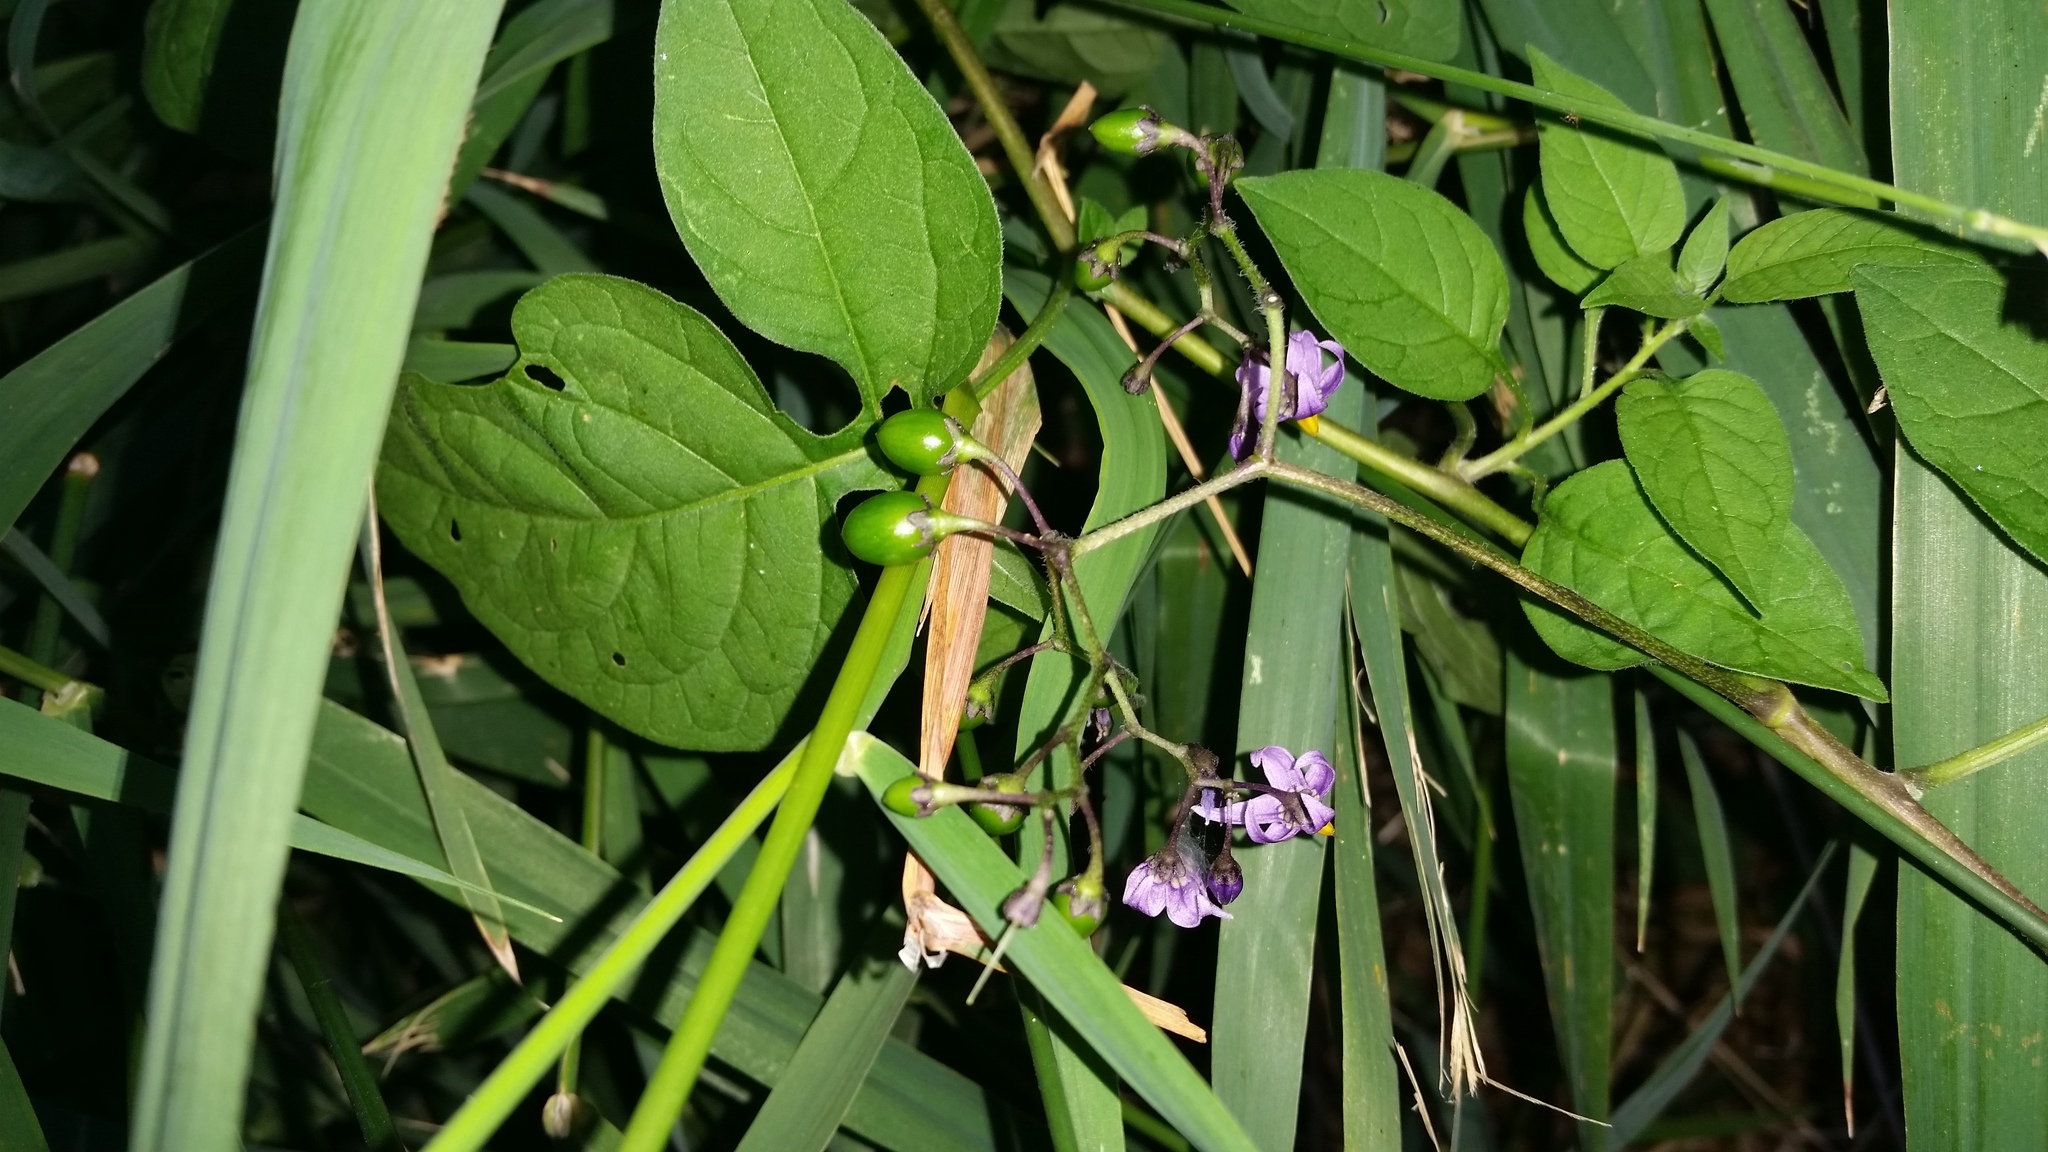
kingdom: Plantae
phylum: Tracheophyta
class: Magnoliopsida
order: Solanales
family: Solanaceae
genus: Solanum
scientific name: Solanum dulcamara
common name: Climbing nightshade
